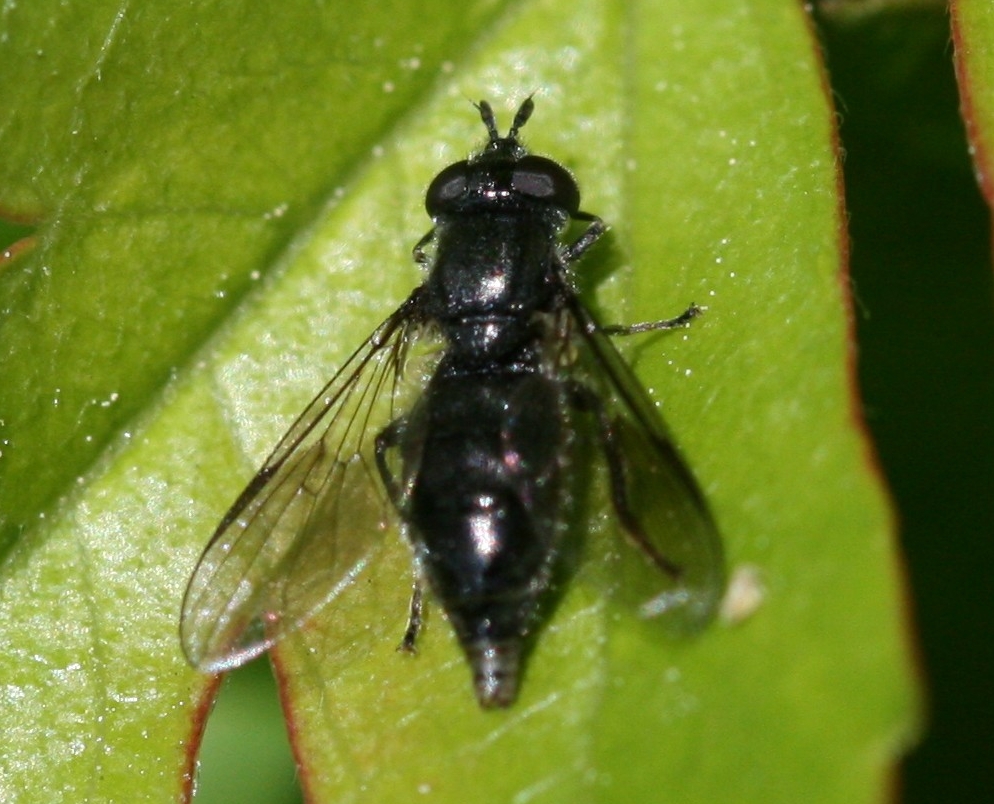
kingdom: Animalia
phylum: Arthropoda
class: Insecta
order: Diptera
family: Syrphidae
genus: Pipiza
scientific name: Pipiza
